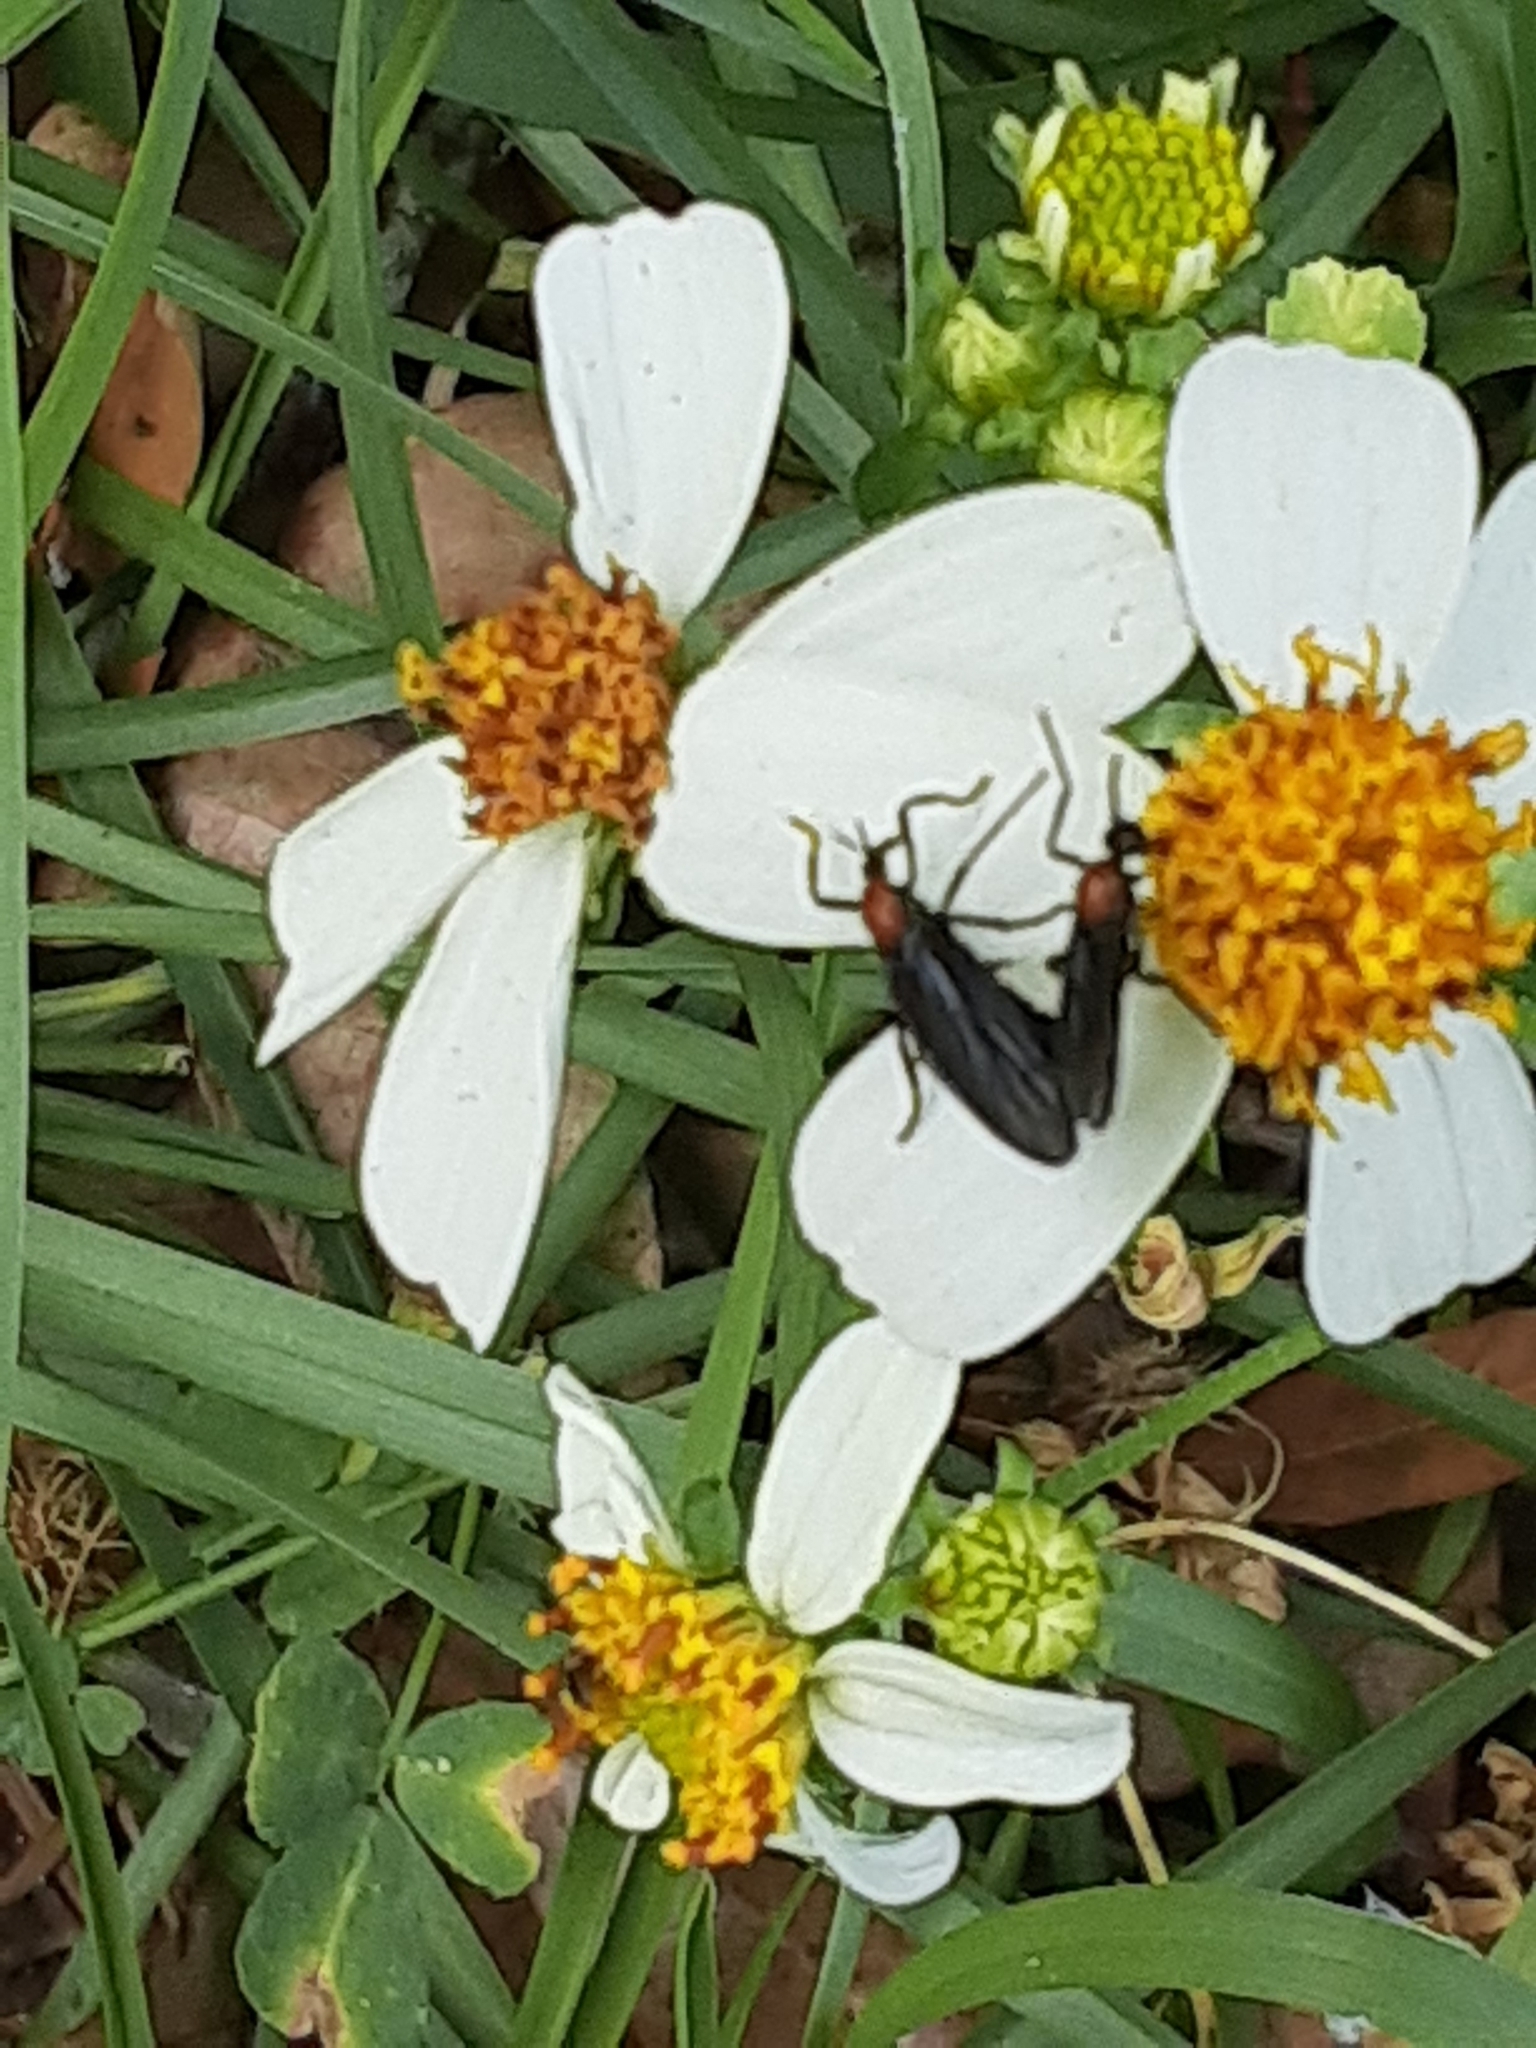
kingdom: Animalia
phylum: Arthropoda
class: Insecta
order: Diptera
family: Bibionidae
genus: Plecia
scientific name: Plecia nearctica
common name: March fly
